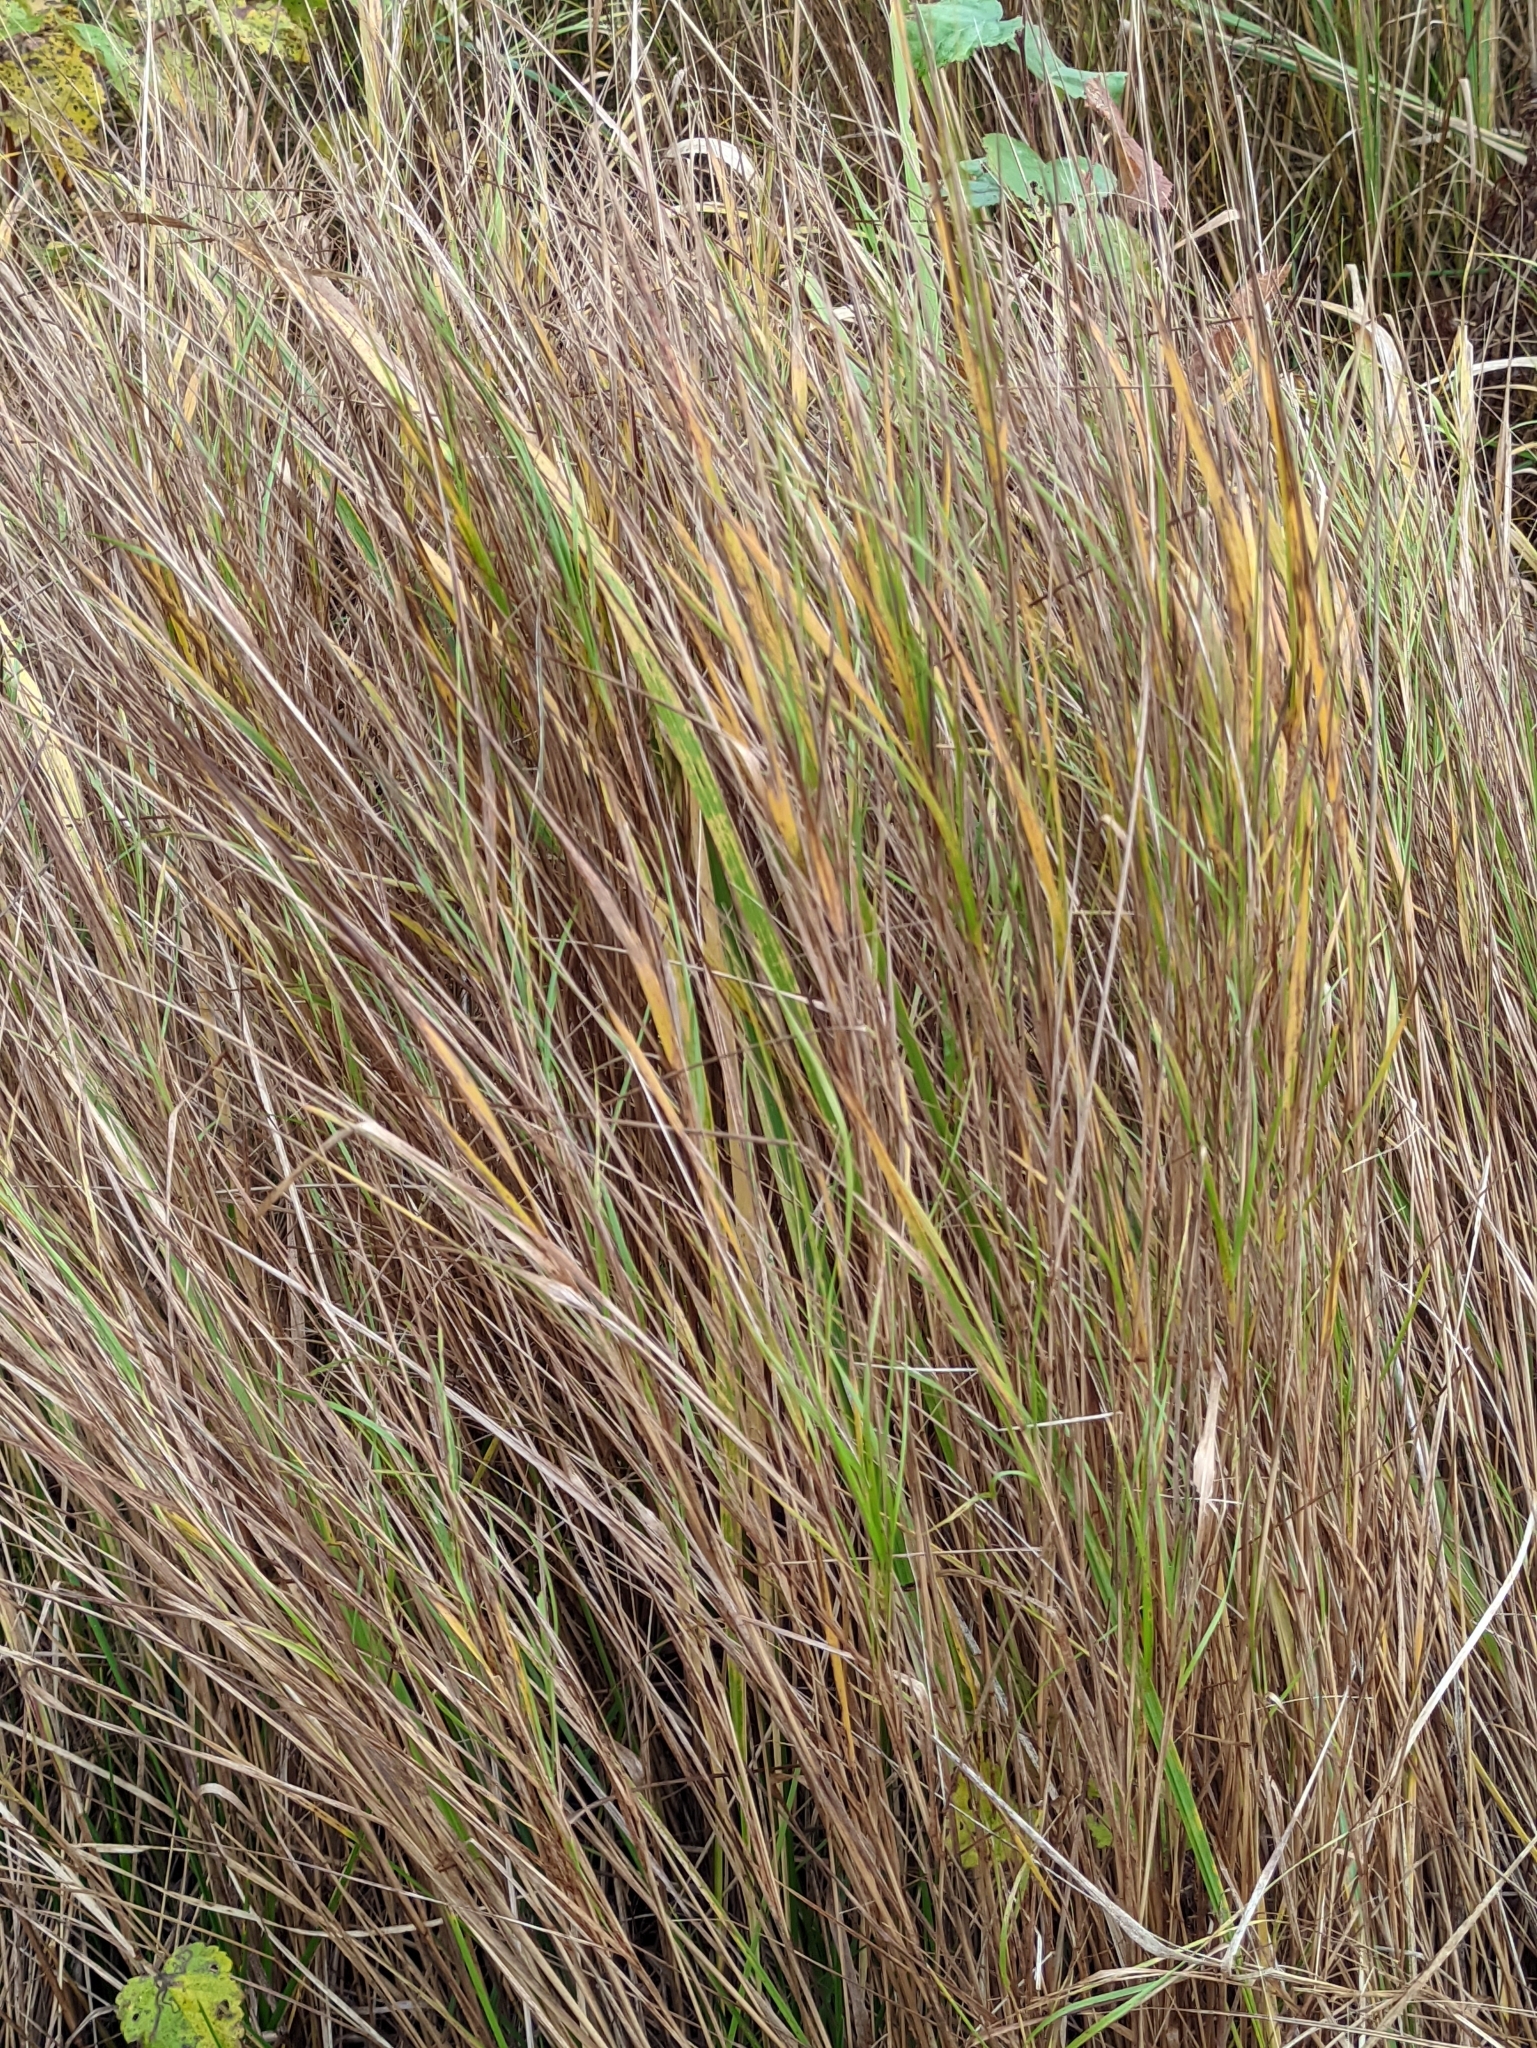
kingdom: Plantae
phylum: Tracheophyta
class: Liliopsida
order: Poales
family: Poaceae
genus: Calamagrostis
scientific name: Calamagrostis canescens
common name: Purple small-reed
